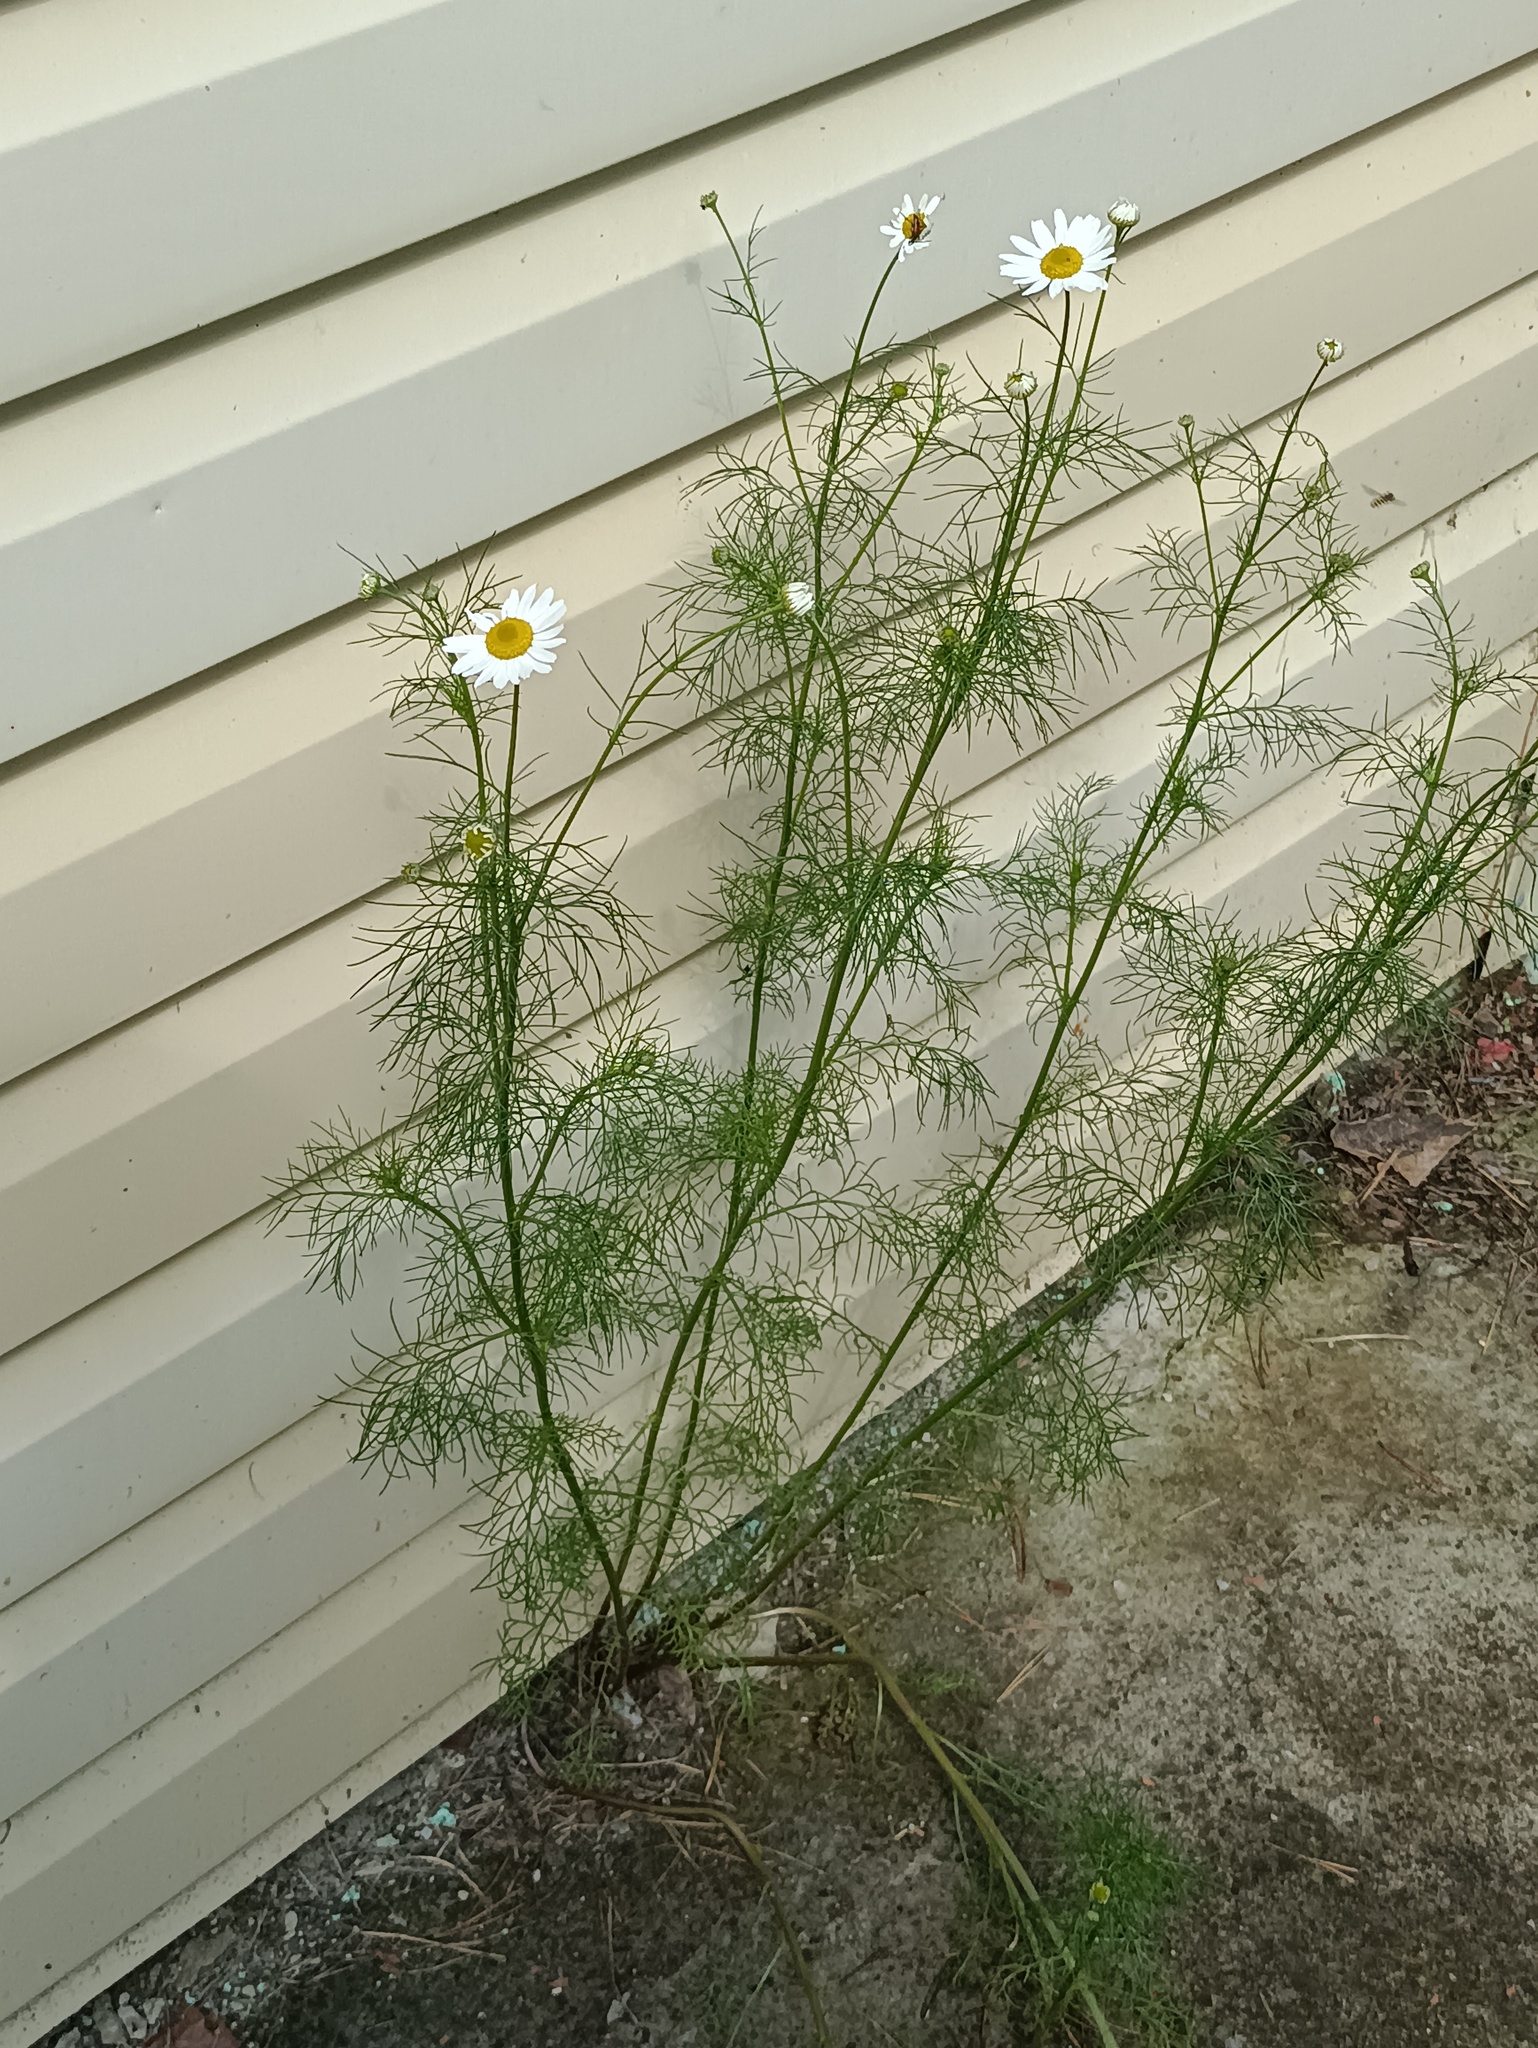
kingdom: Plantae
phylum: Tracheophyta
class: Magnoliopsida
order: Asterales
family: Asteraceae
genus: Tripleurospermum
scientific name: Tripleurospermum inodorum
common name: Scentless mayweed
